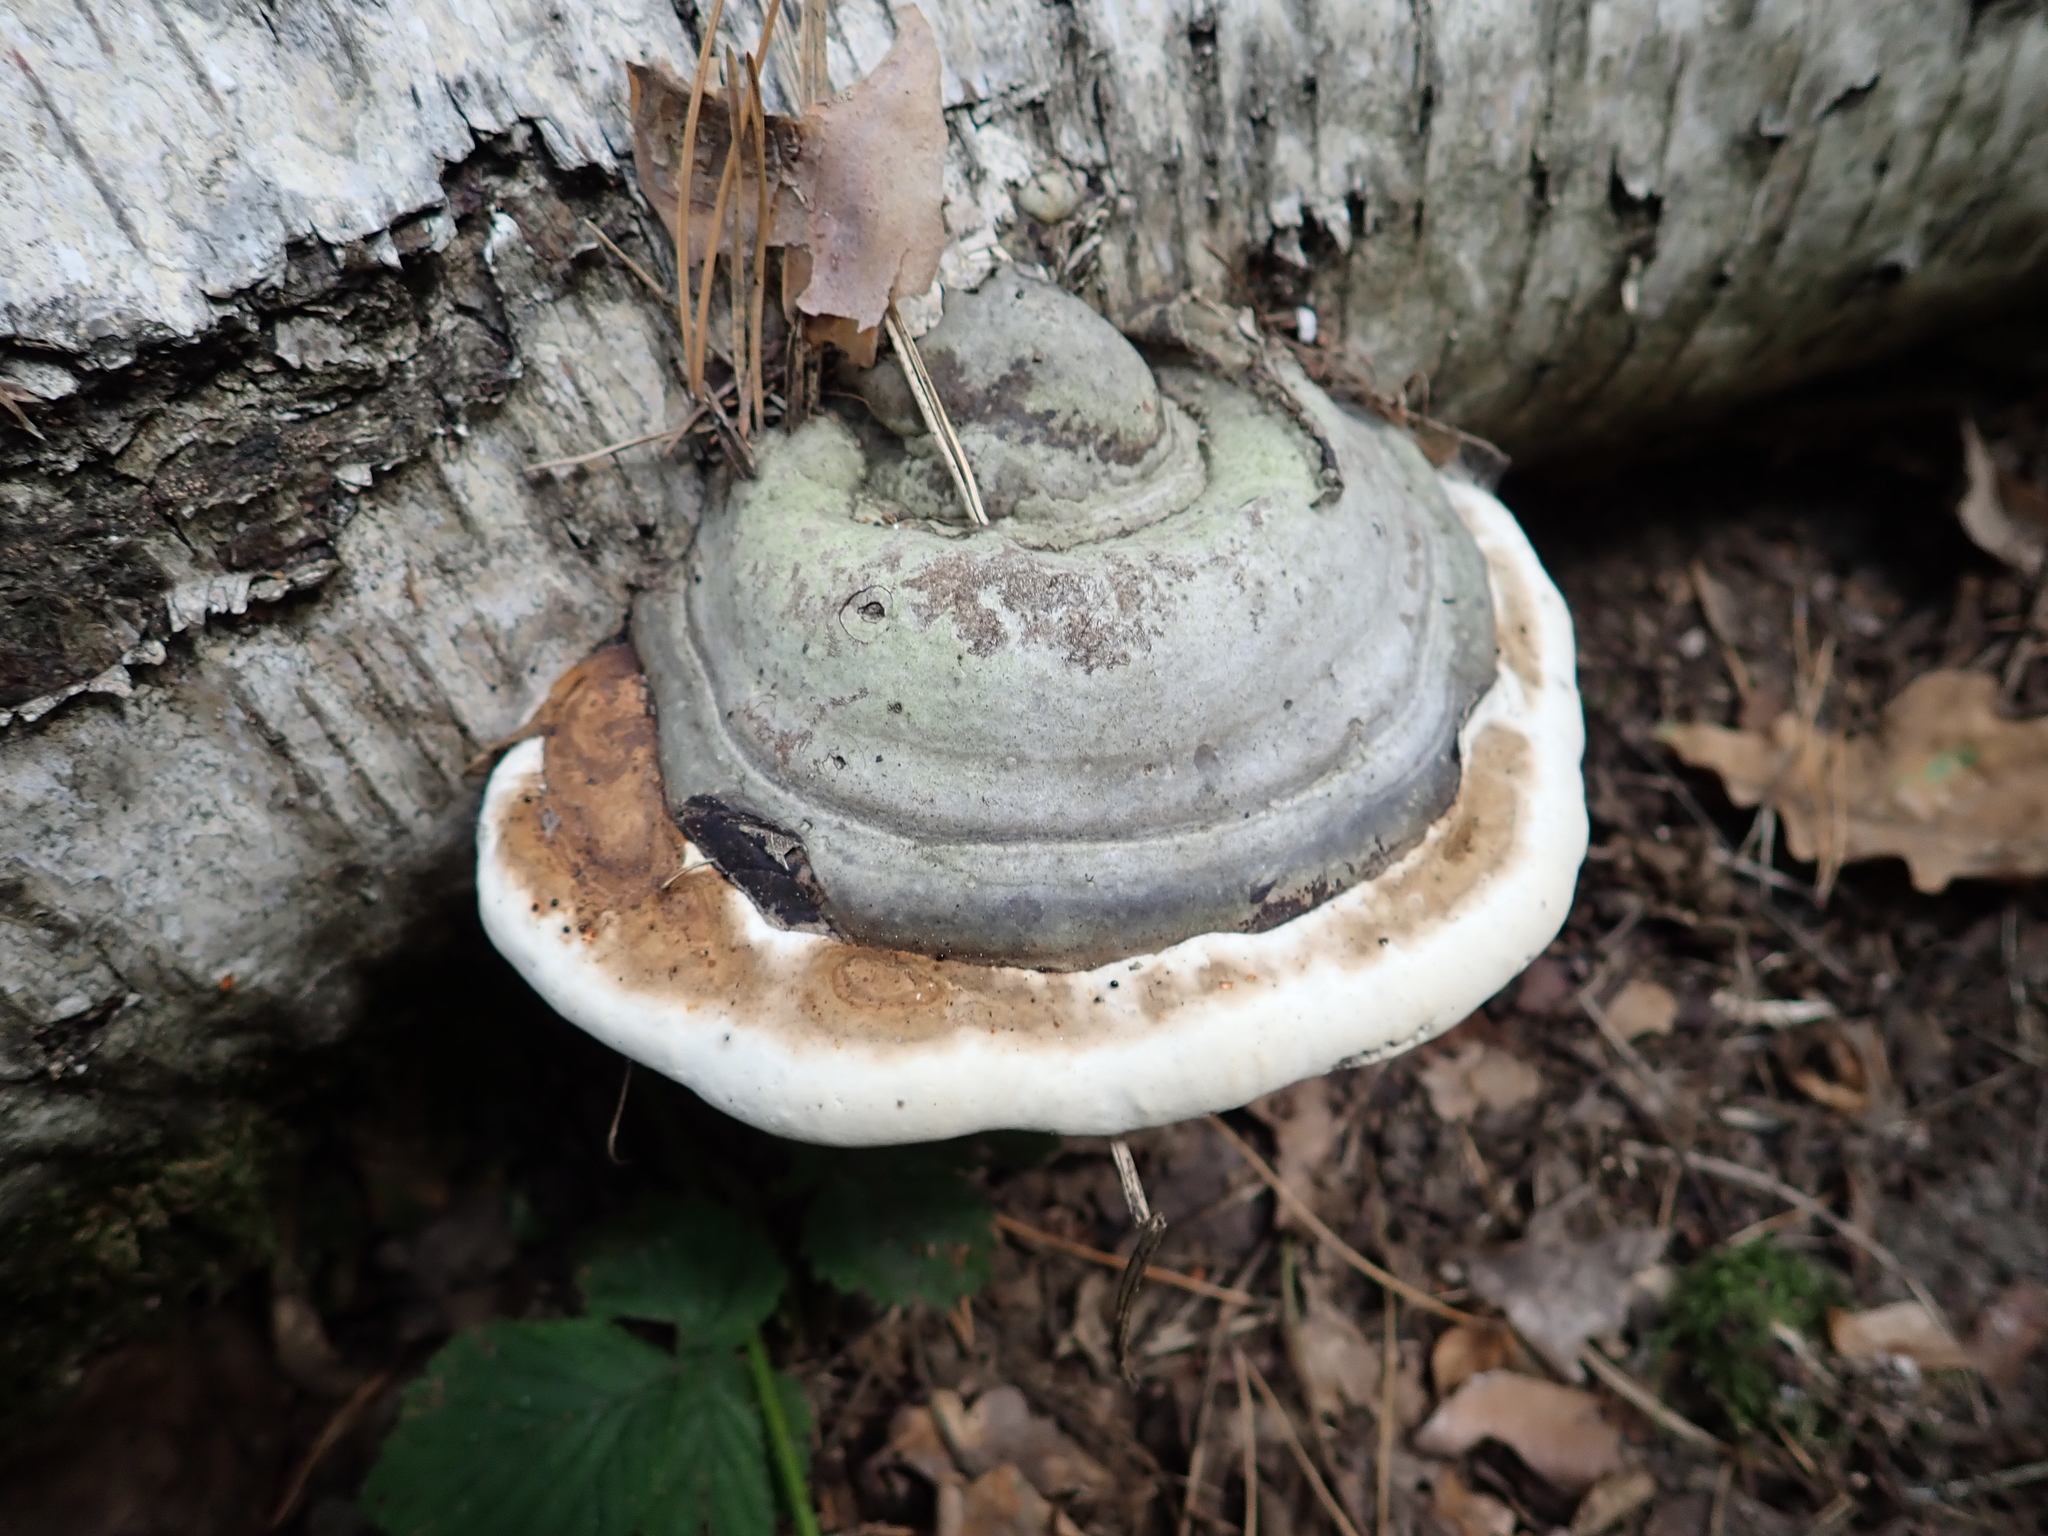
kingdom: Fungi
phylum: Basidiomycota
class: Agaricomycetes
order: Polyporales
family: Polyporaceae
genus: Fomes
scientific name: Fomes fomentarius
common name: Hoof fungus
